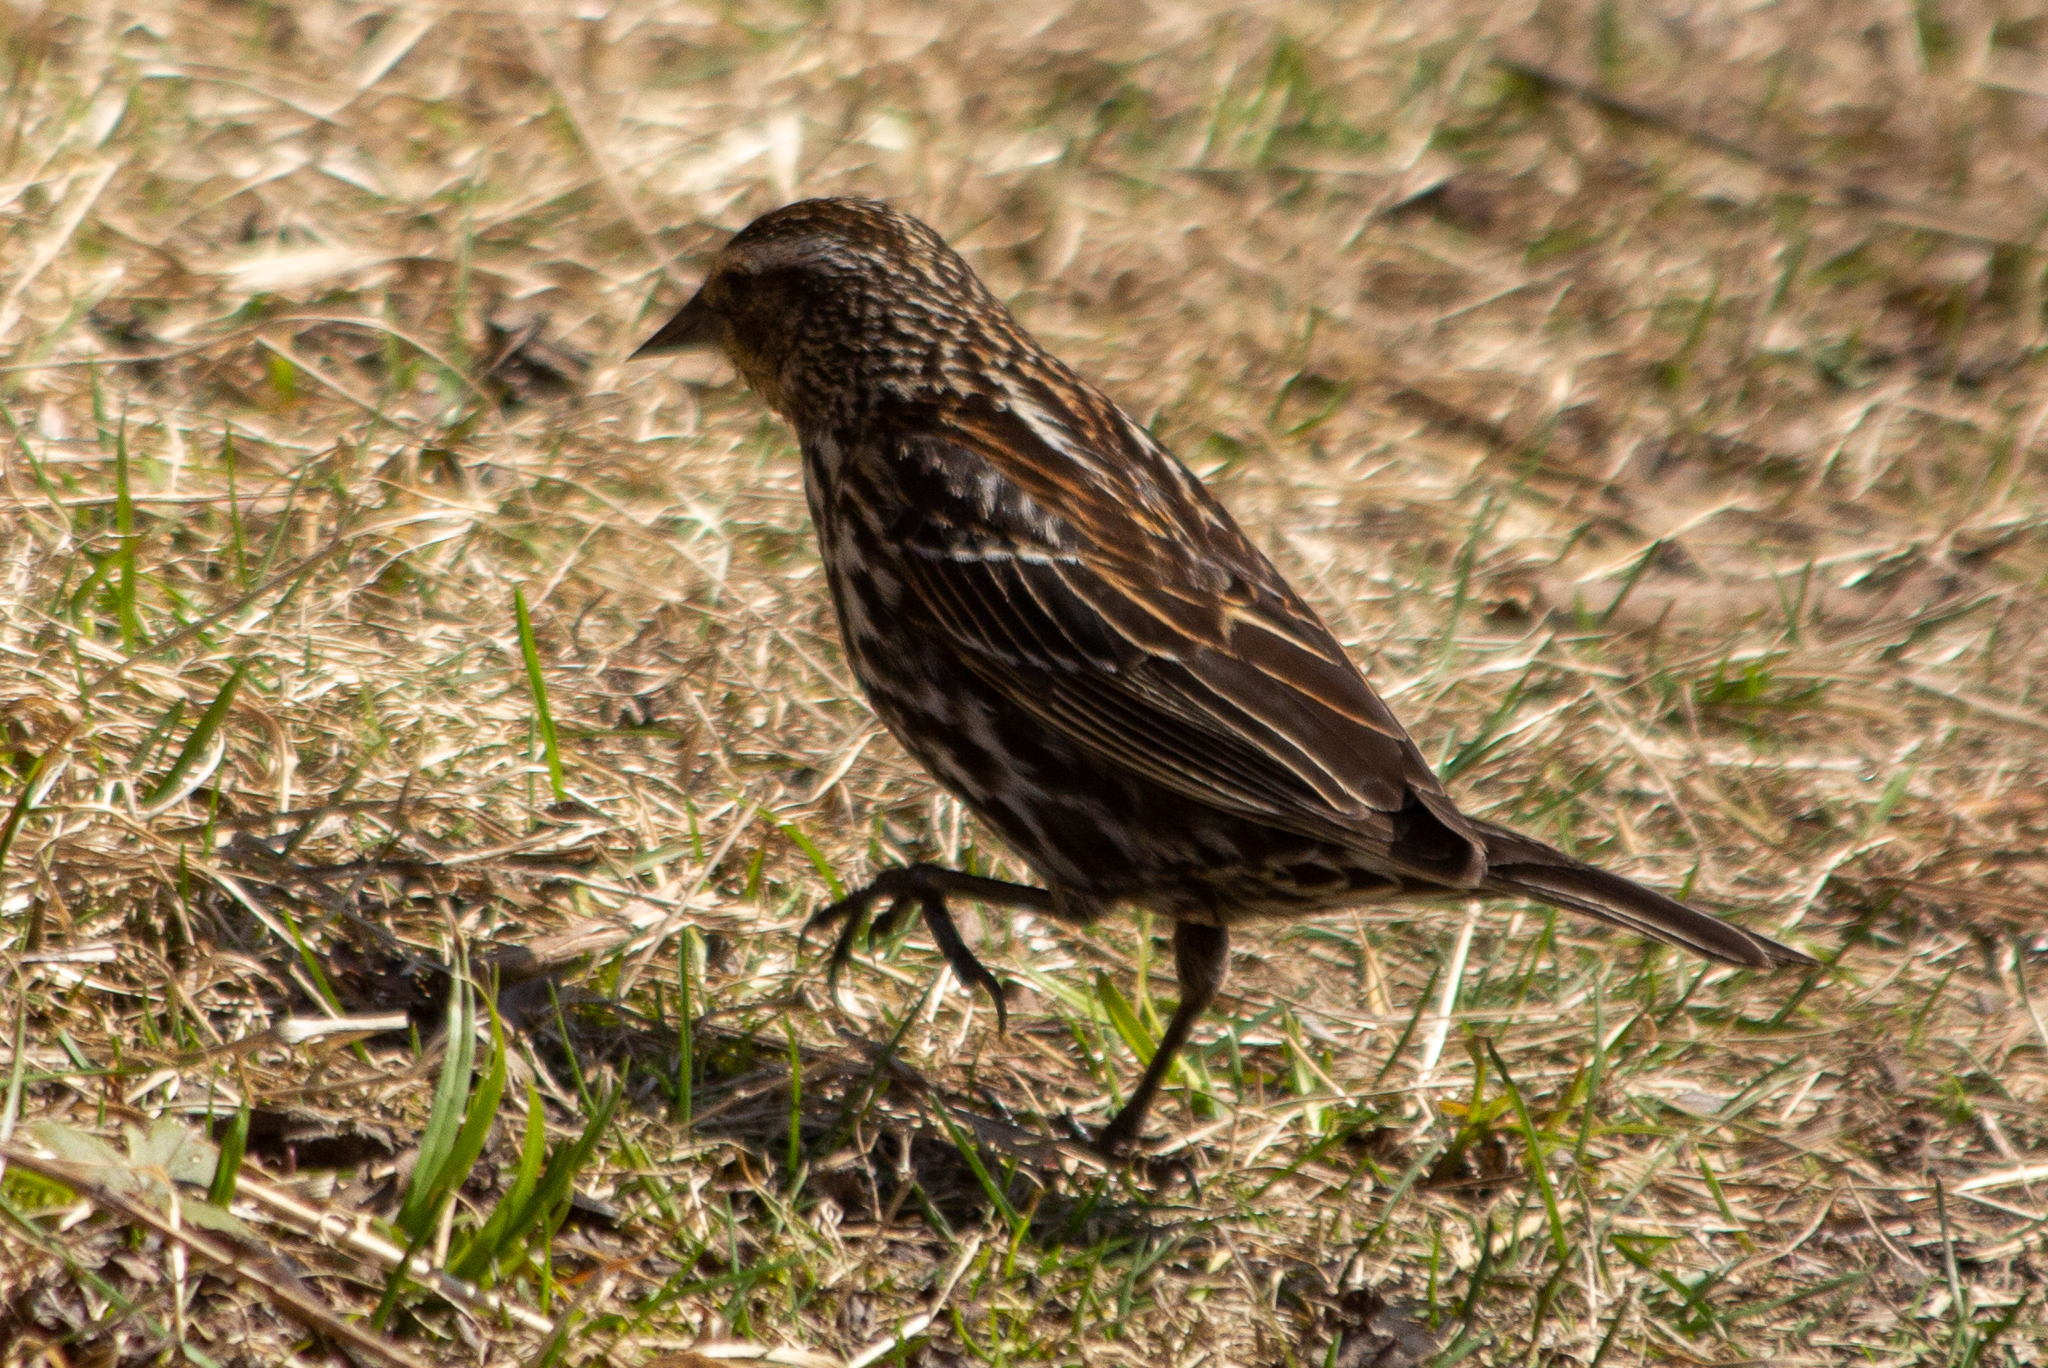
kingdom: Animalia
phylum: Chordata
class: Aves
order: Passeriformes
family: Icteridae
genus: Agelaius
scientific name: Agelaius phoeniceus
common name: Red-winged blackbird
